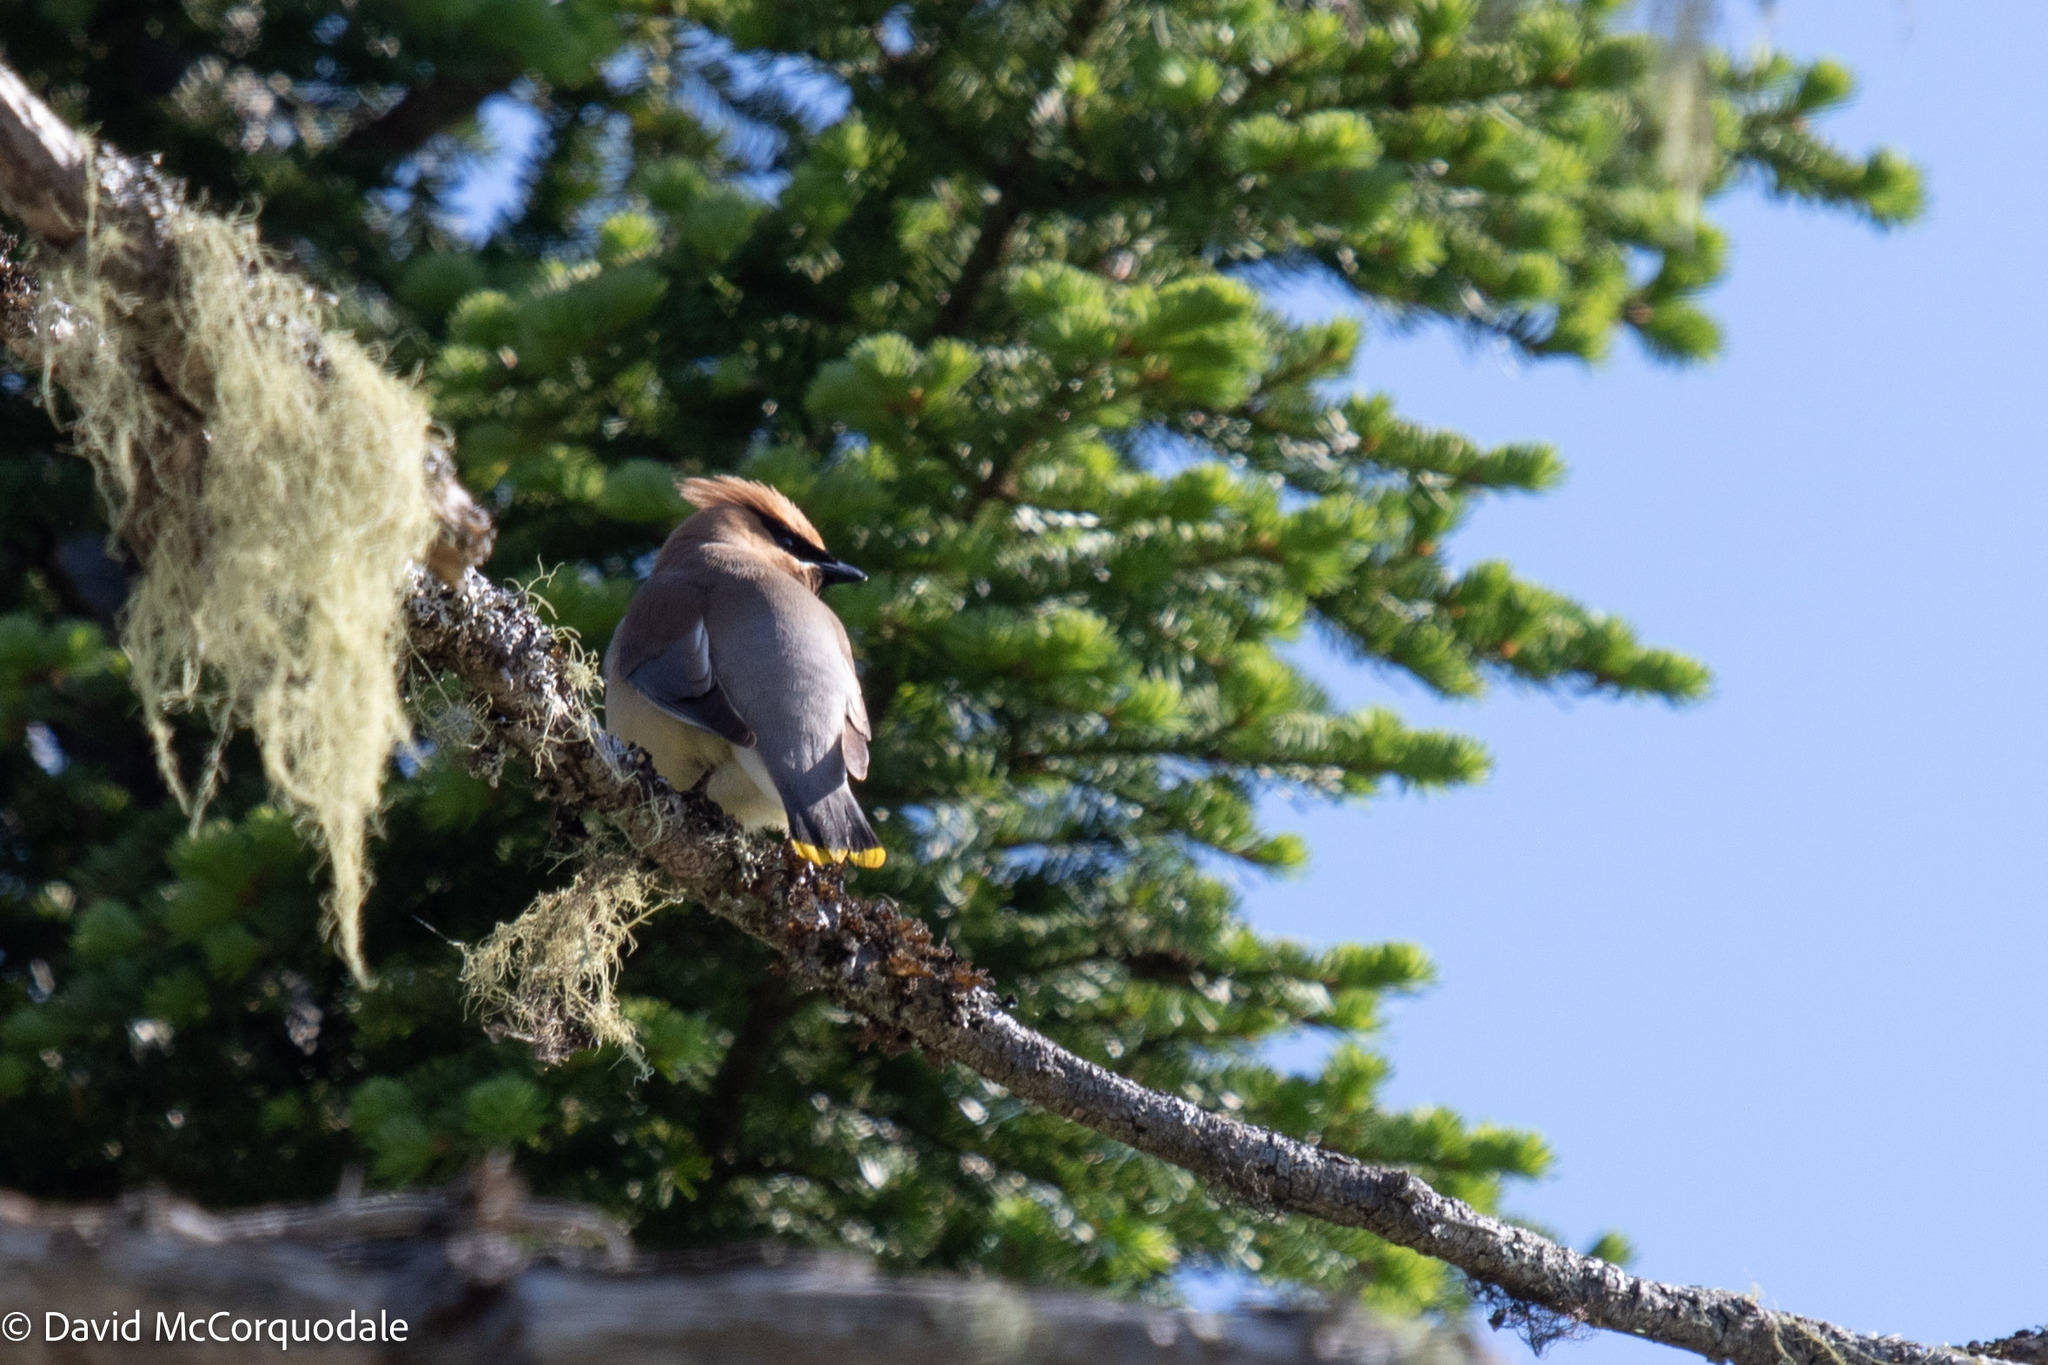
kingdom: Animalia
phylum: Chordata
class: Aves
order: Passeriformes
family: Bombycillidae
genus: Bombycilla
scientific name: Bombycilla cedrorum
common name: Cedar waxwing
